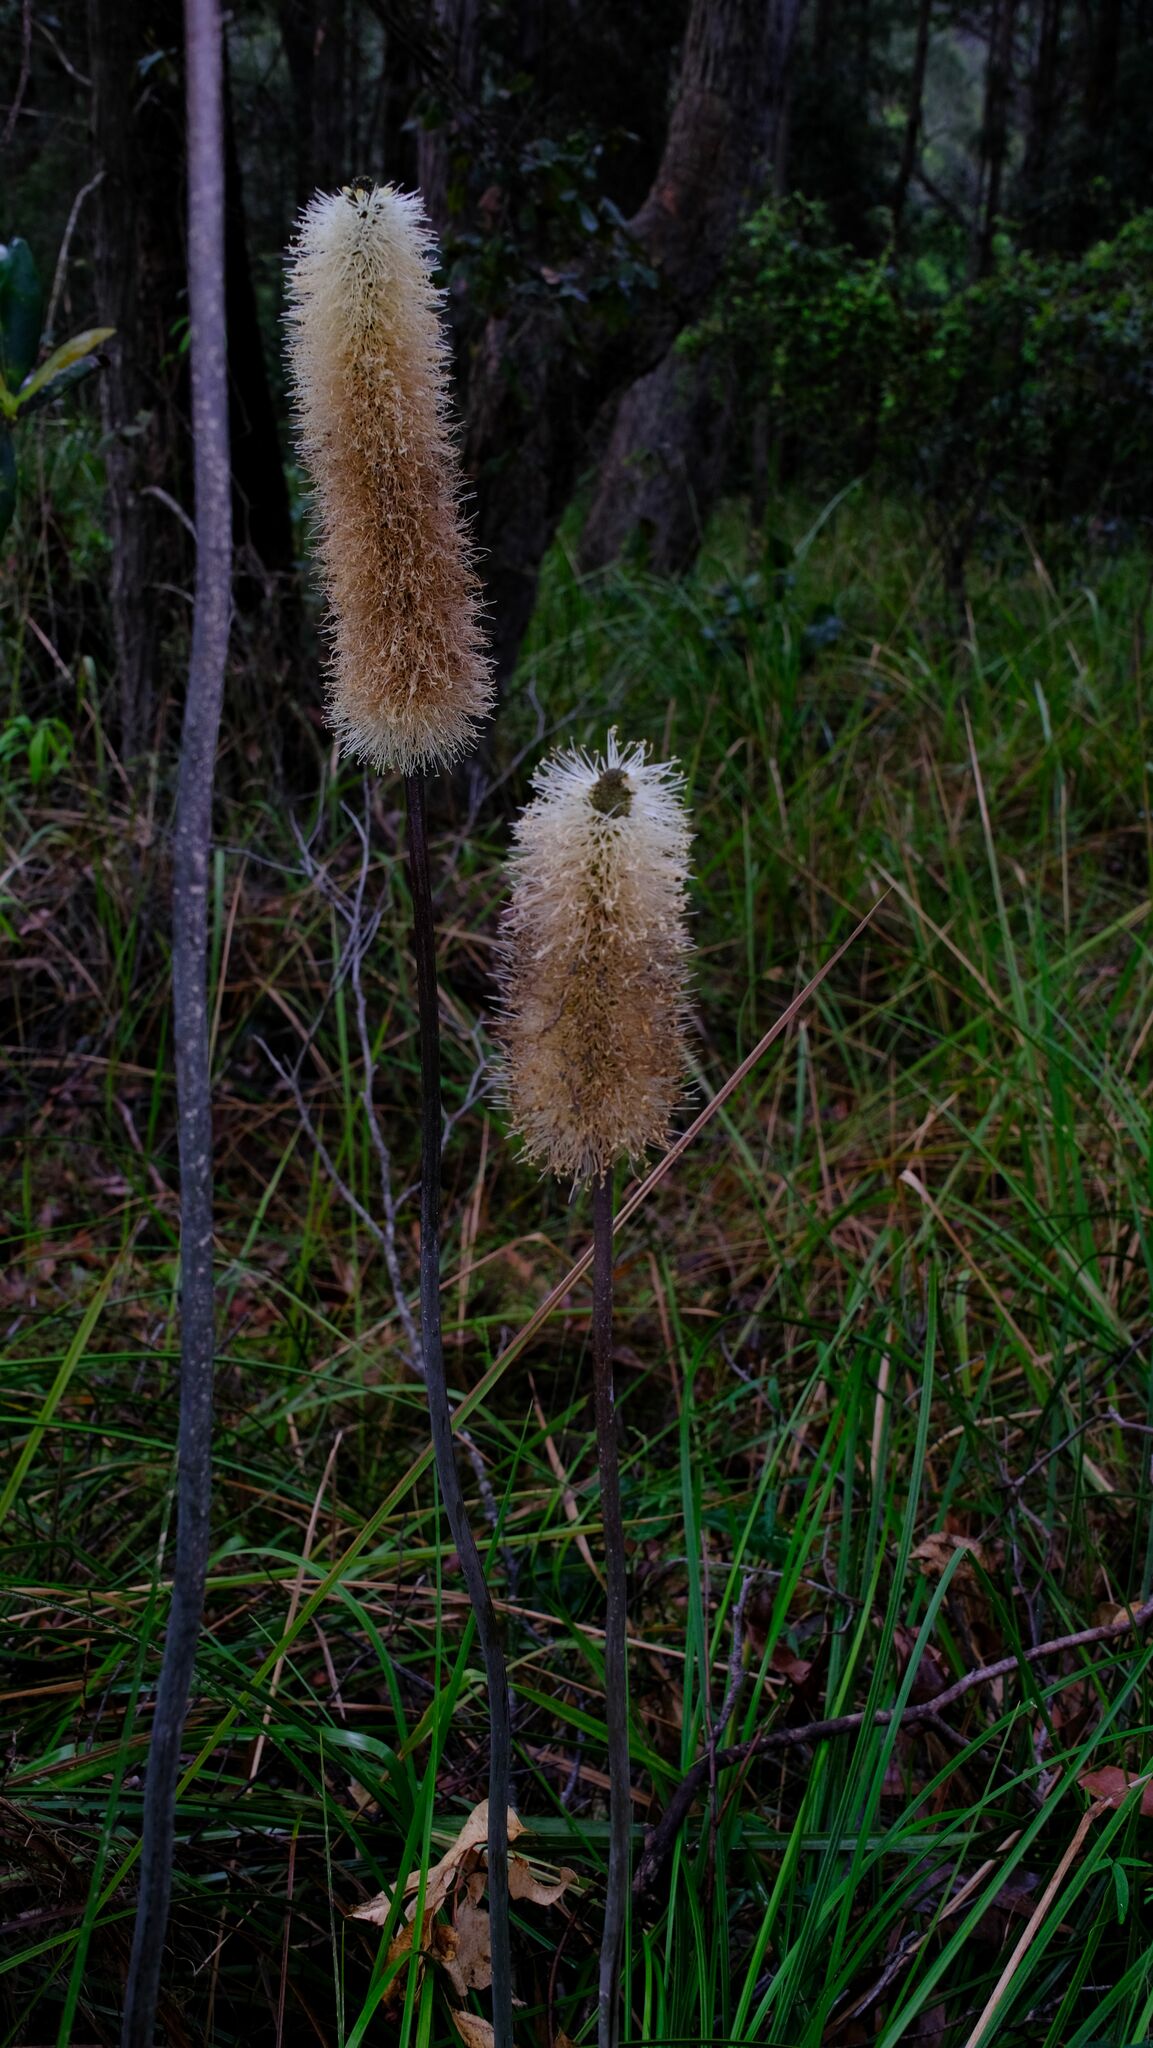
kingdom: Plantae
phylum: Tracheophyta
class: Liliopsida
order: Asparagales
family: Asphodelaceae
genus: Xanthorrhoea
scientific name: Xanthorrhoea macronema
